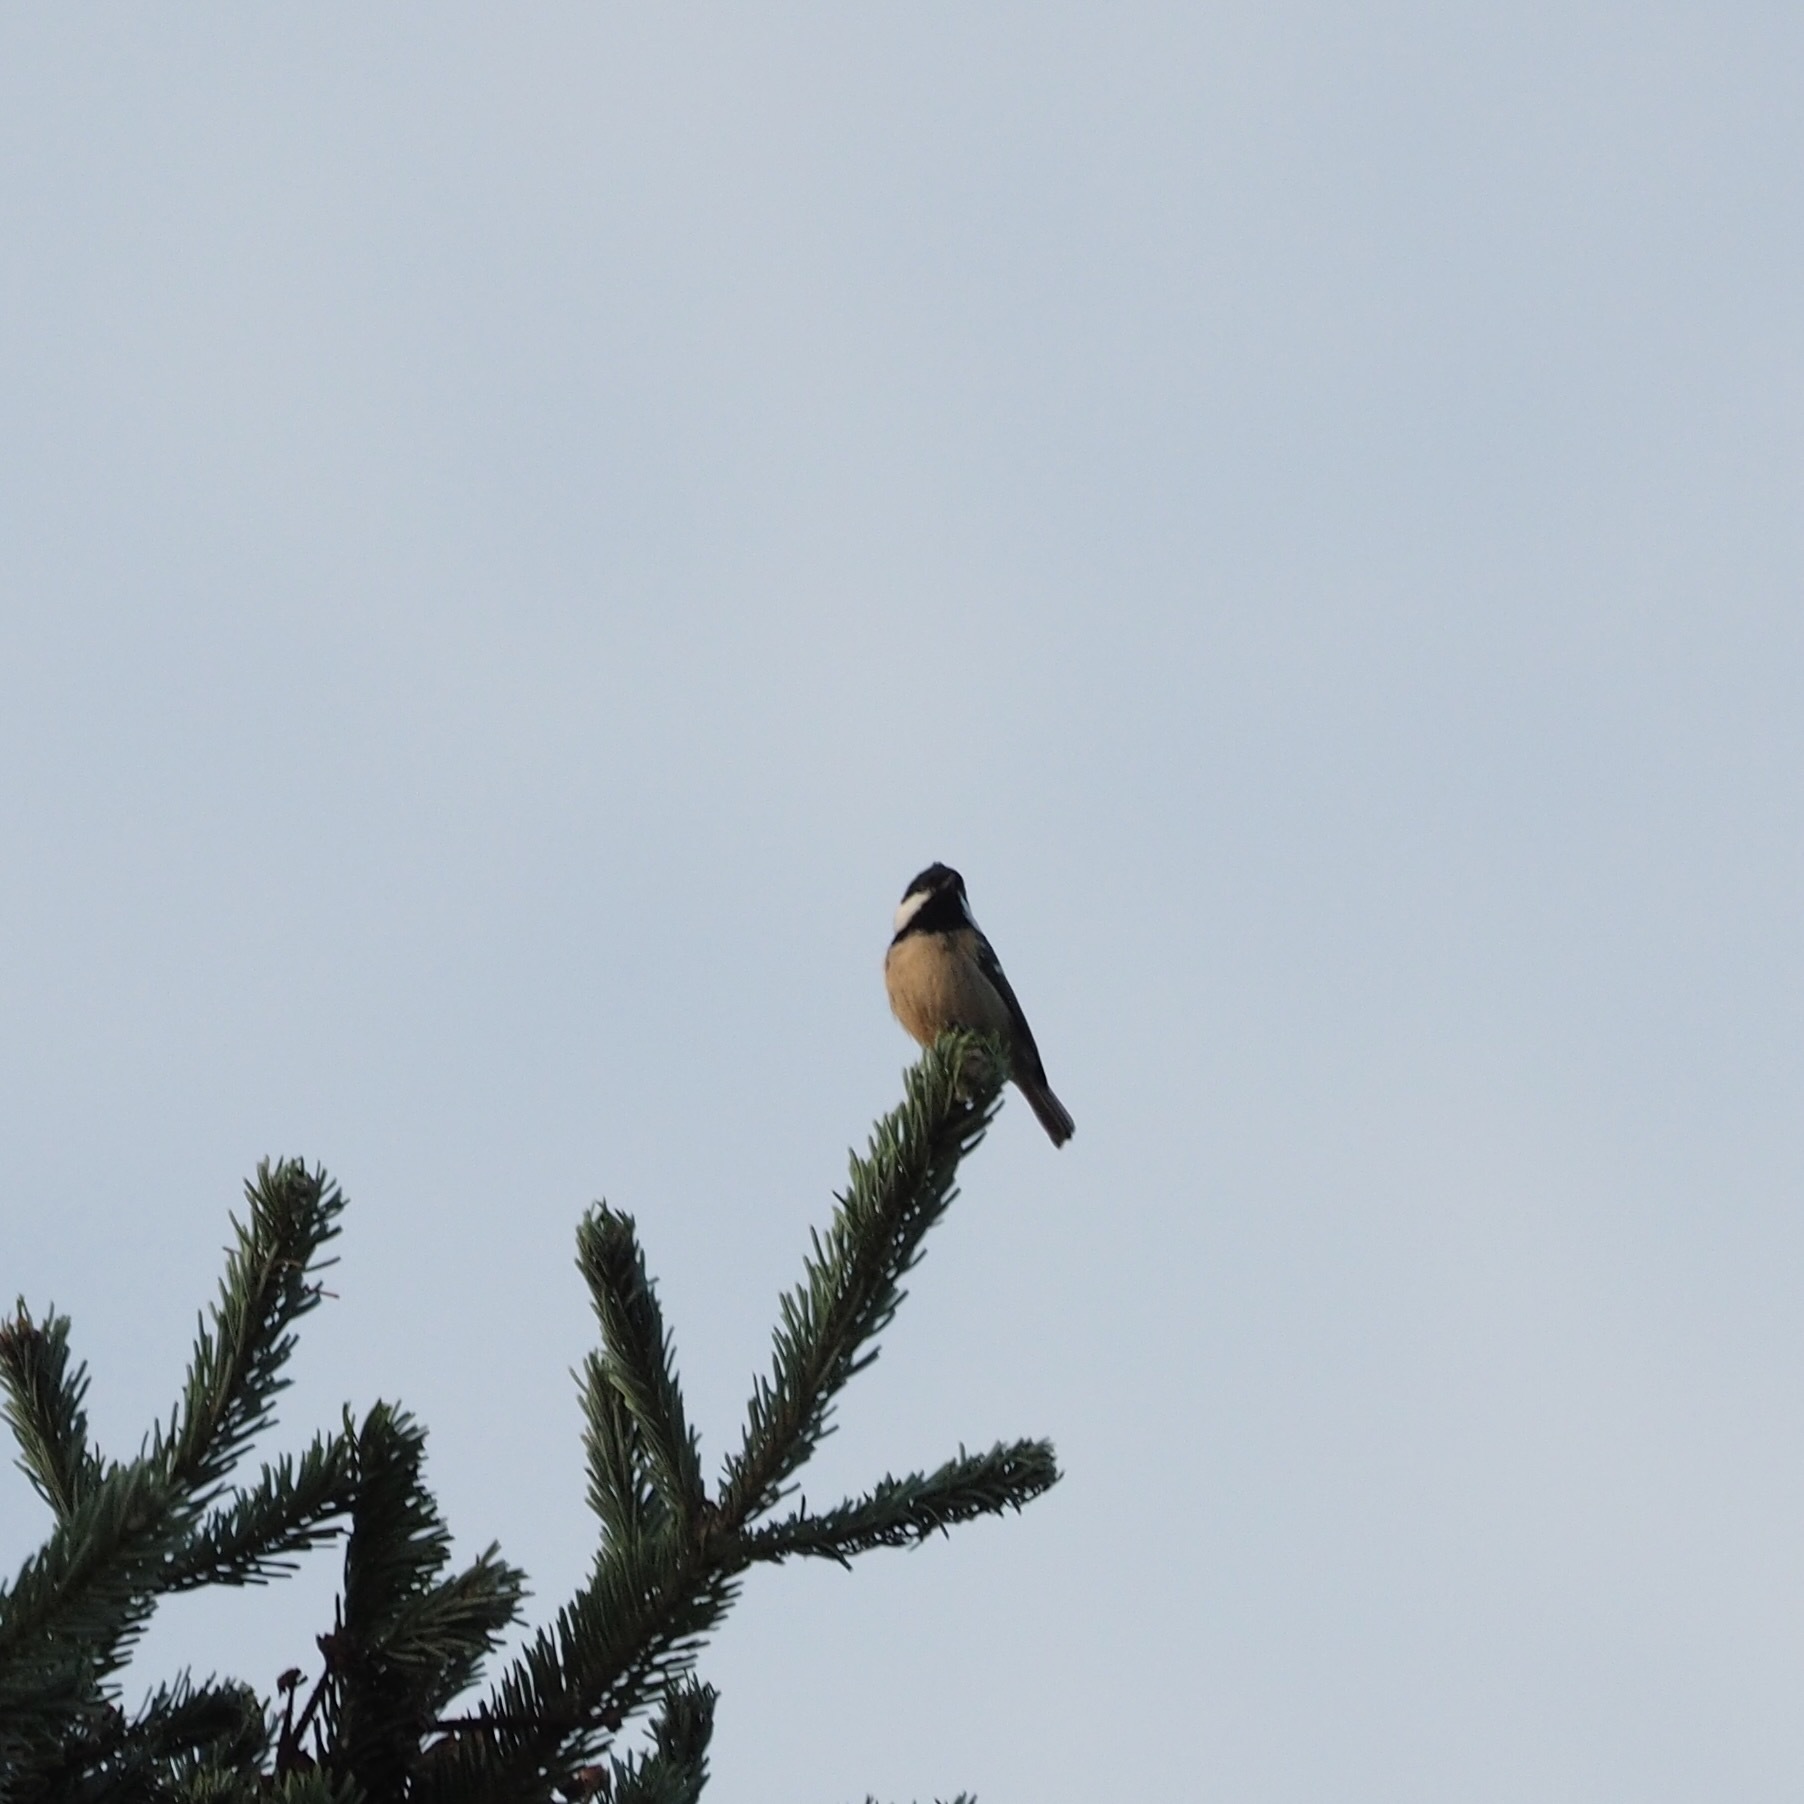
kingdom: Animalia
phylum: Chordata
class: Aves
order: Passeriformes
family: Paridae
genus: Periparus
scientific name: Periparus ater
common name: Coal tit
